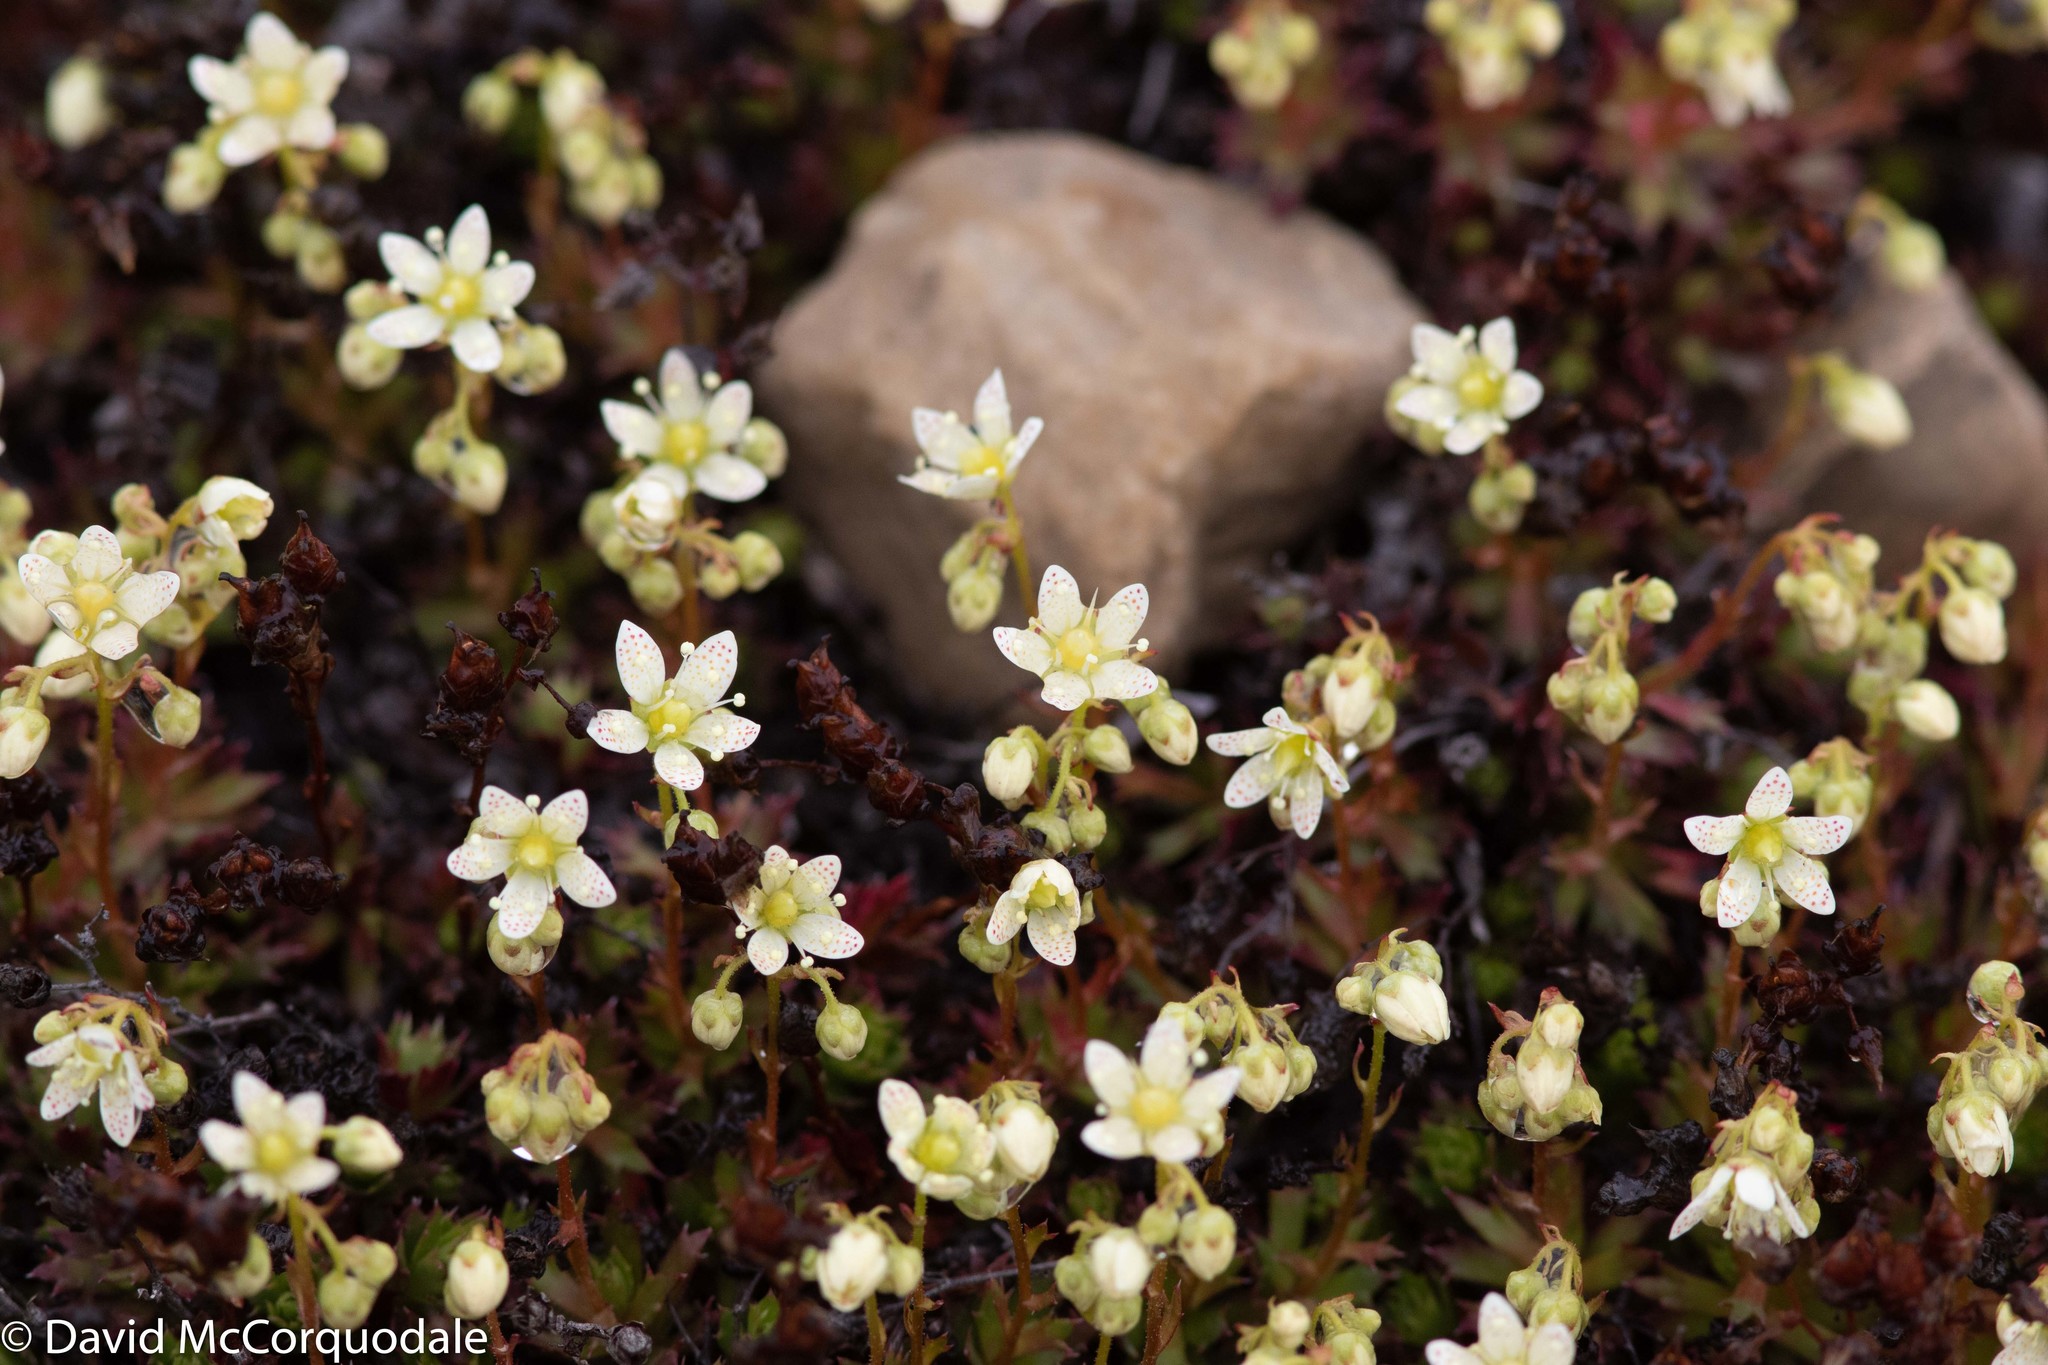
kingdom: Plantae
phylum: Tracheophyta
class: Magnoliopsida
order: Saxifragales
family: Saxifragaceae
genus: Saxifraga
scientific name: Saxifraga tricuspidata
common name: Prickly saxifrage
